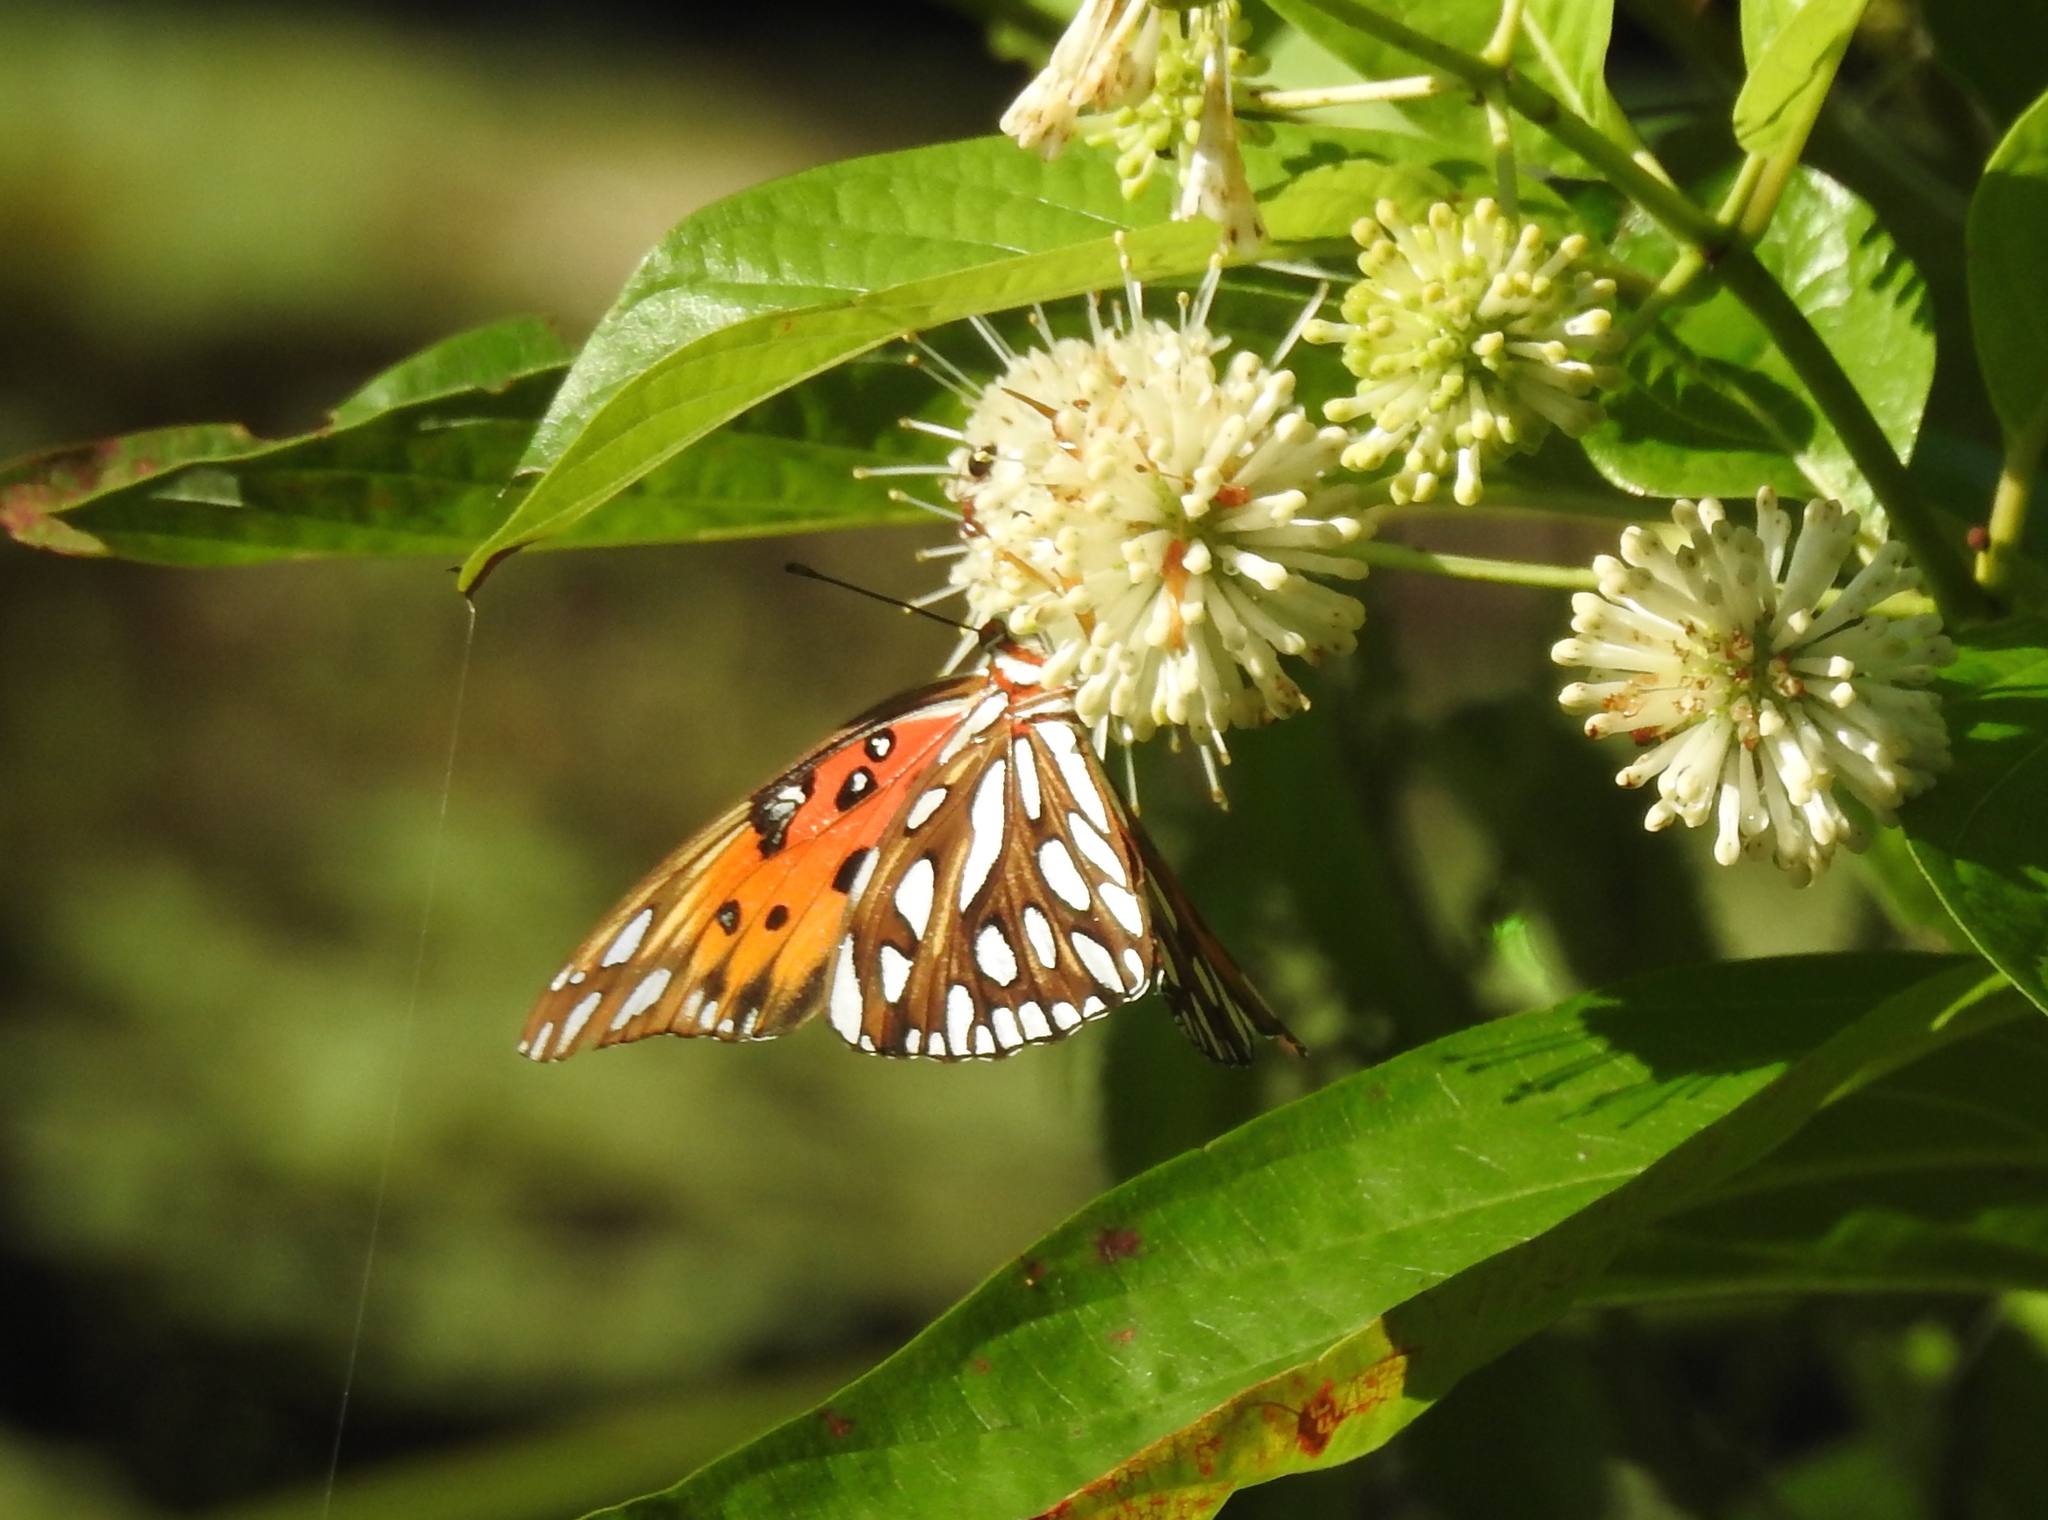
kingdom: Animalia
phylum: Arthropoda
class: Insecta
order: Lepidoptera
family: Nymphalidae
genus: Dione
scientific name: Dione vanillae
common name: Gulf fritillary
